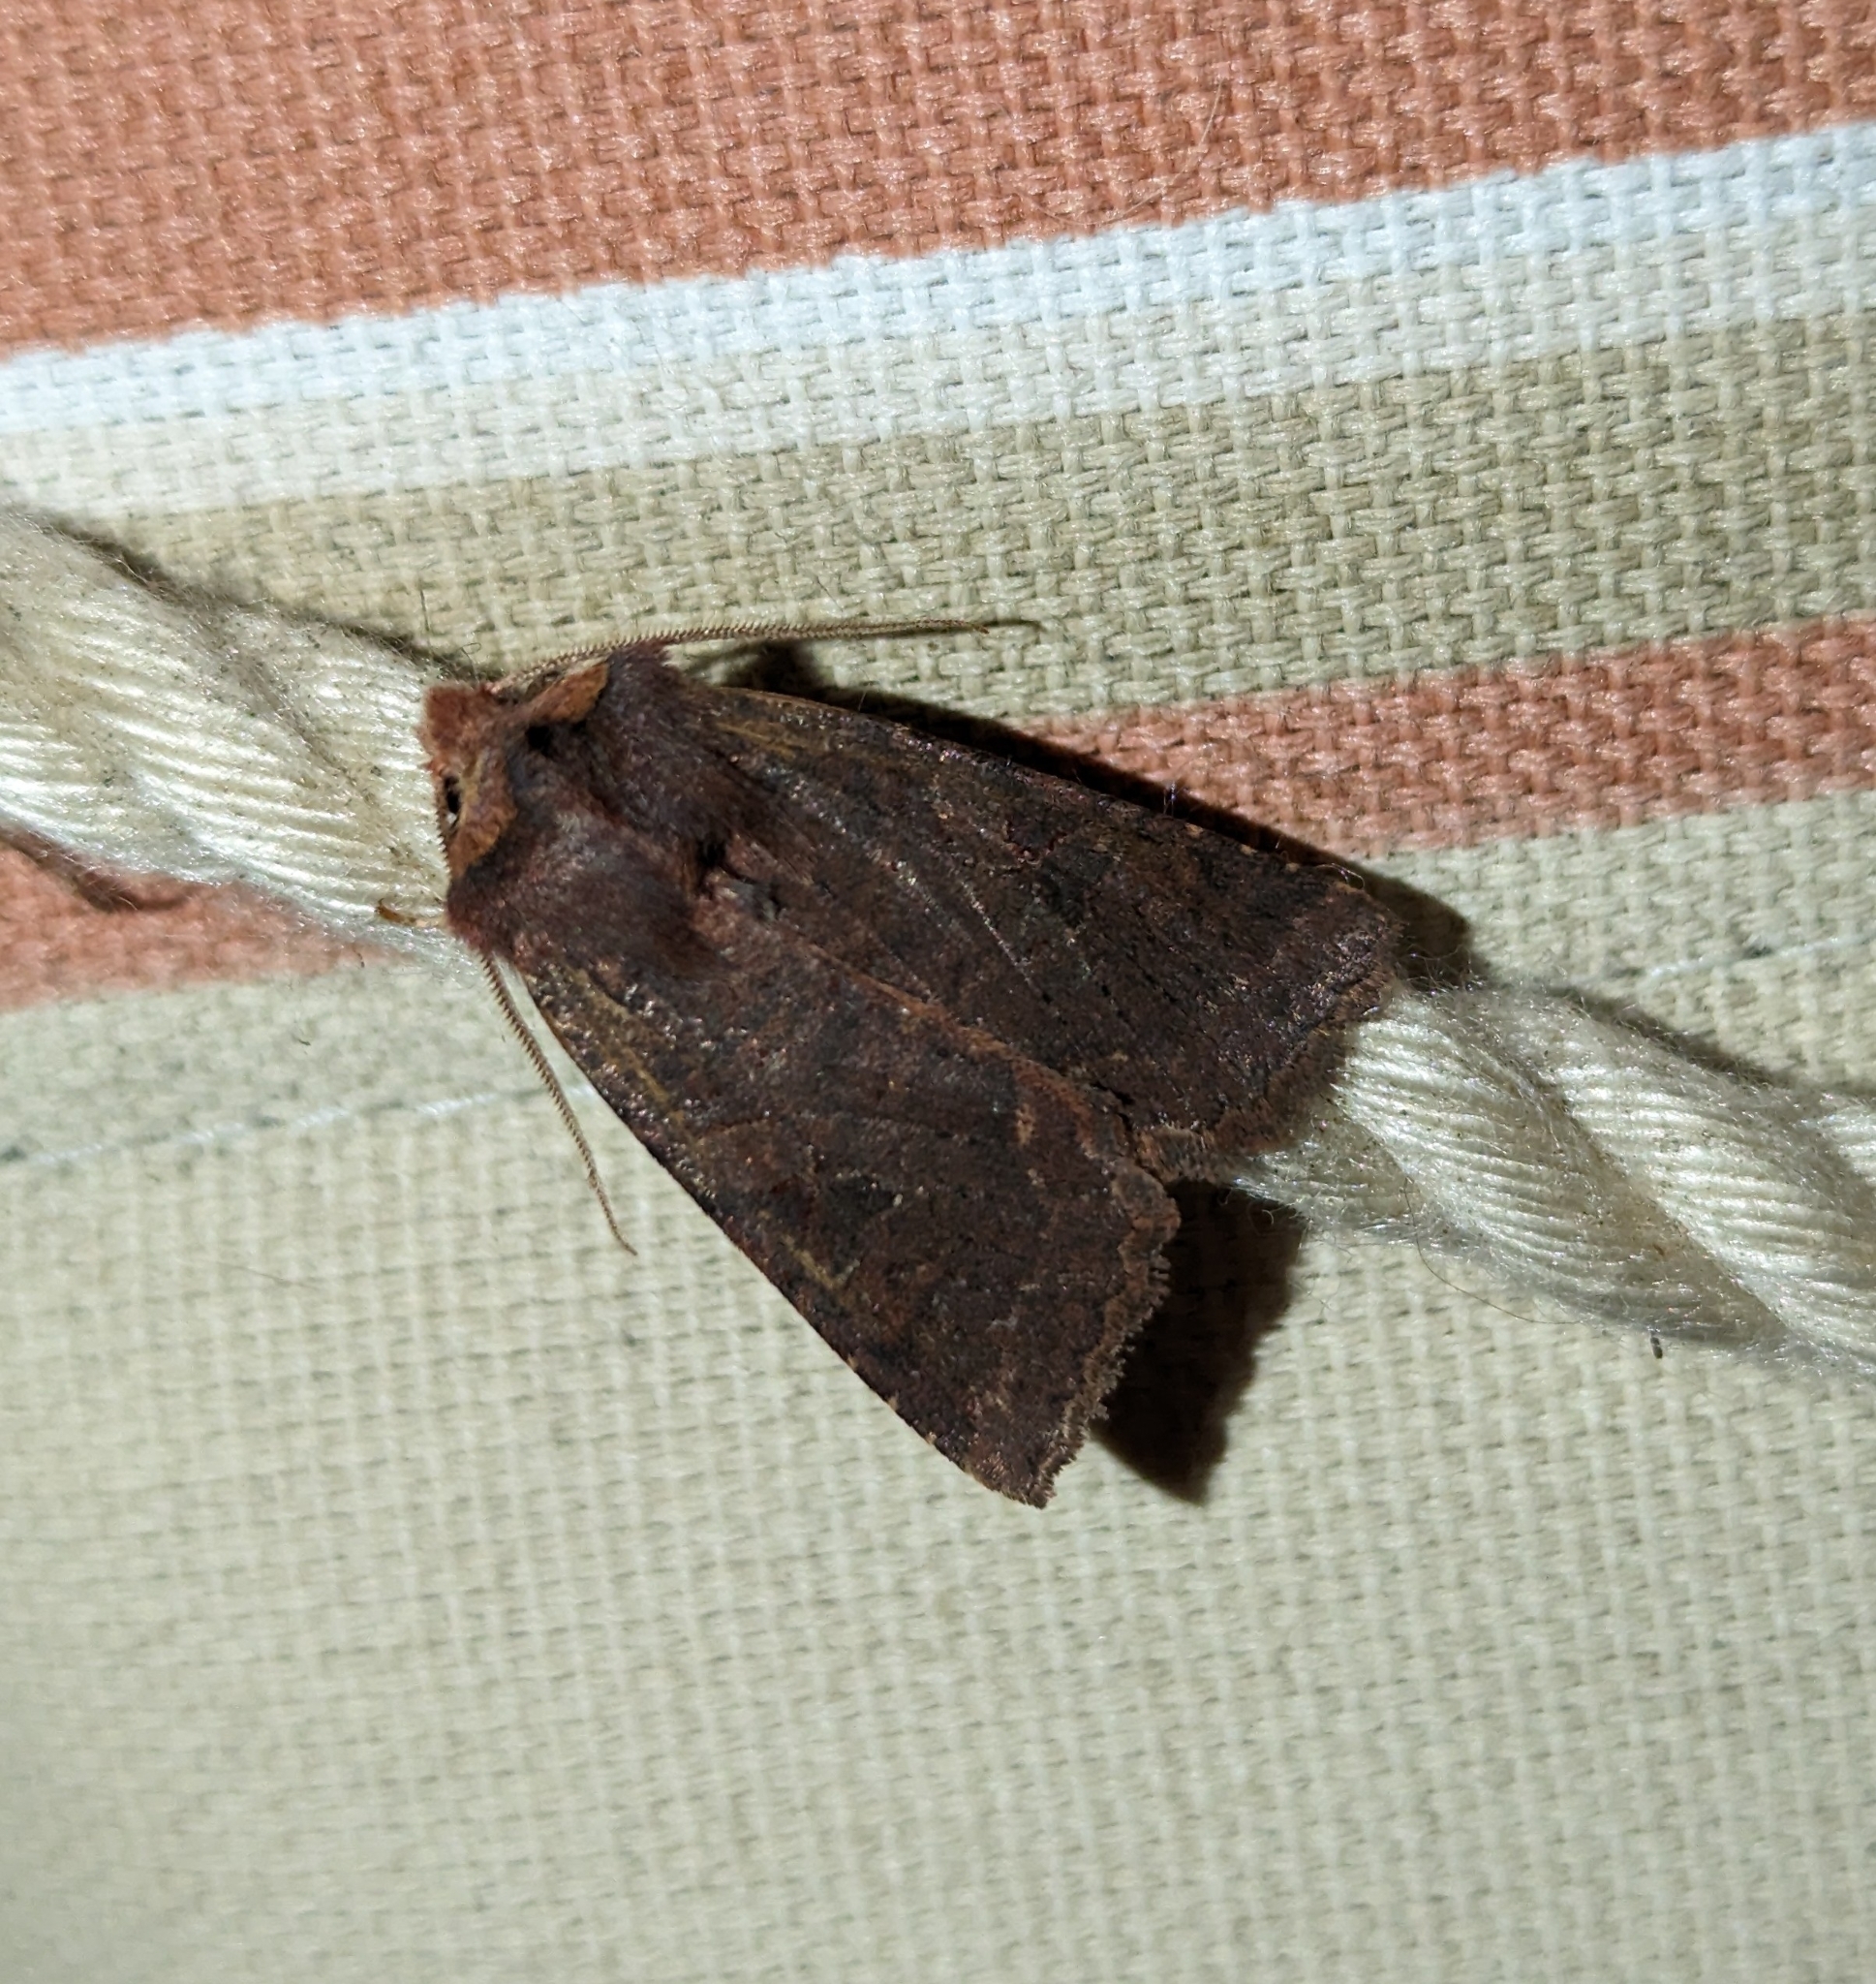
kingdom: Animalia
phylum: Arthropoda
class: Insecta
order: Lepidoptera
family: Noctuidae
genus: Orthosia
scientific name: Orthosia praeses
